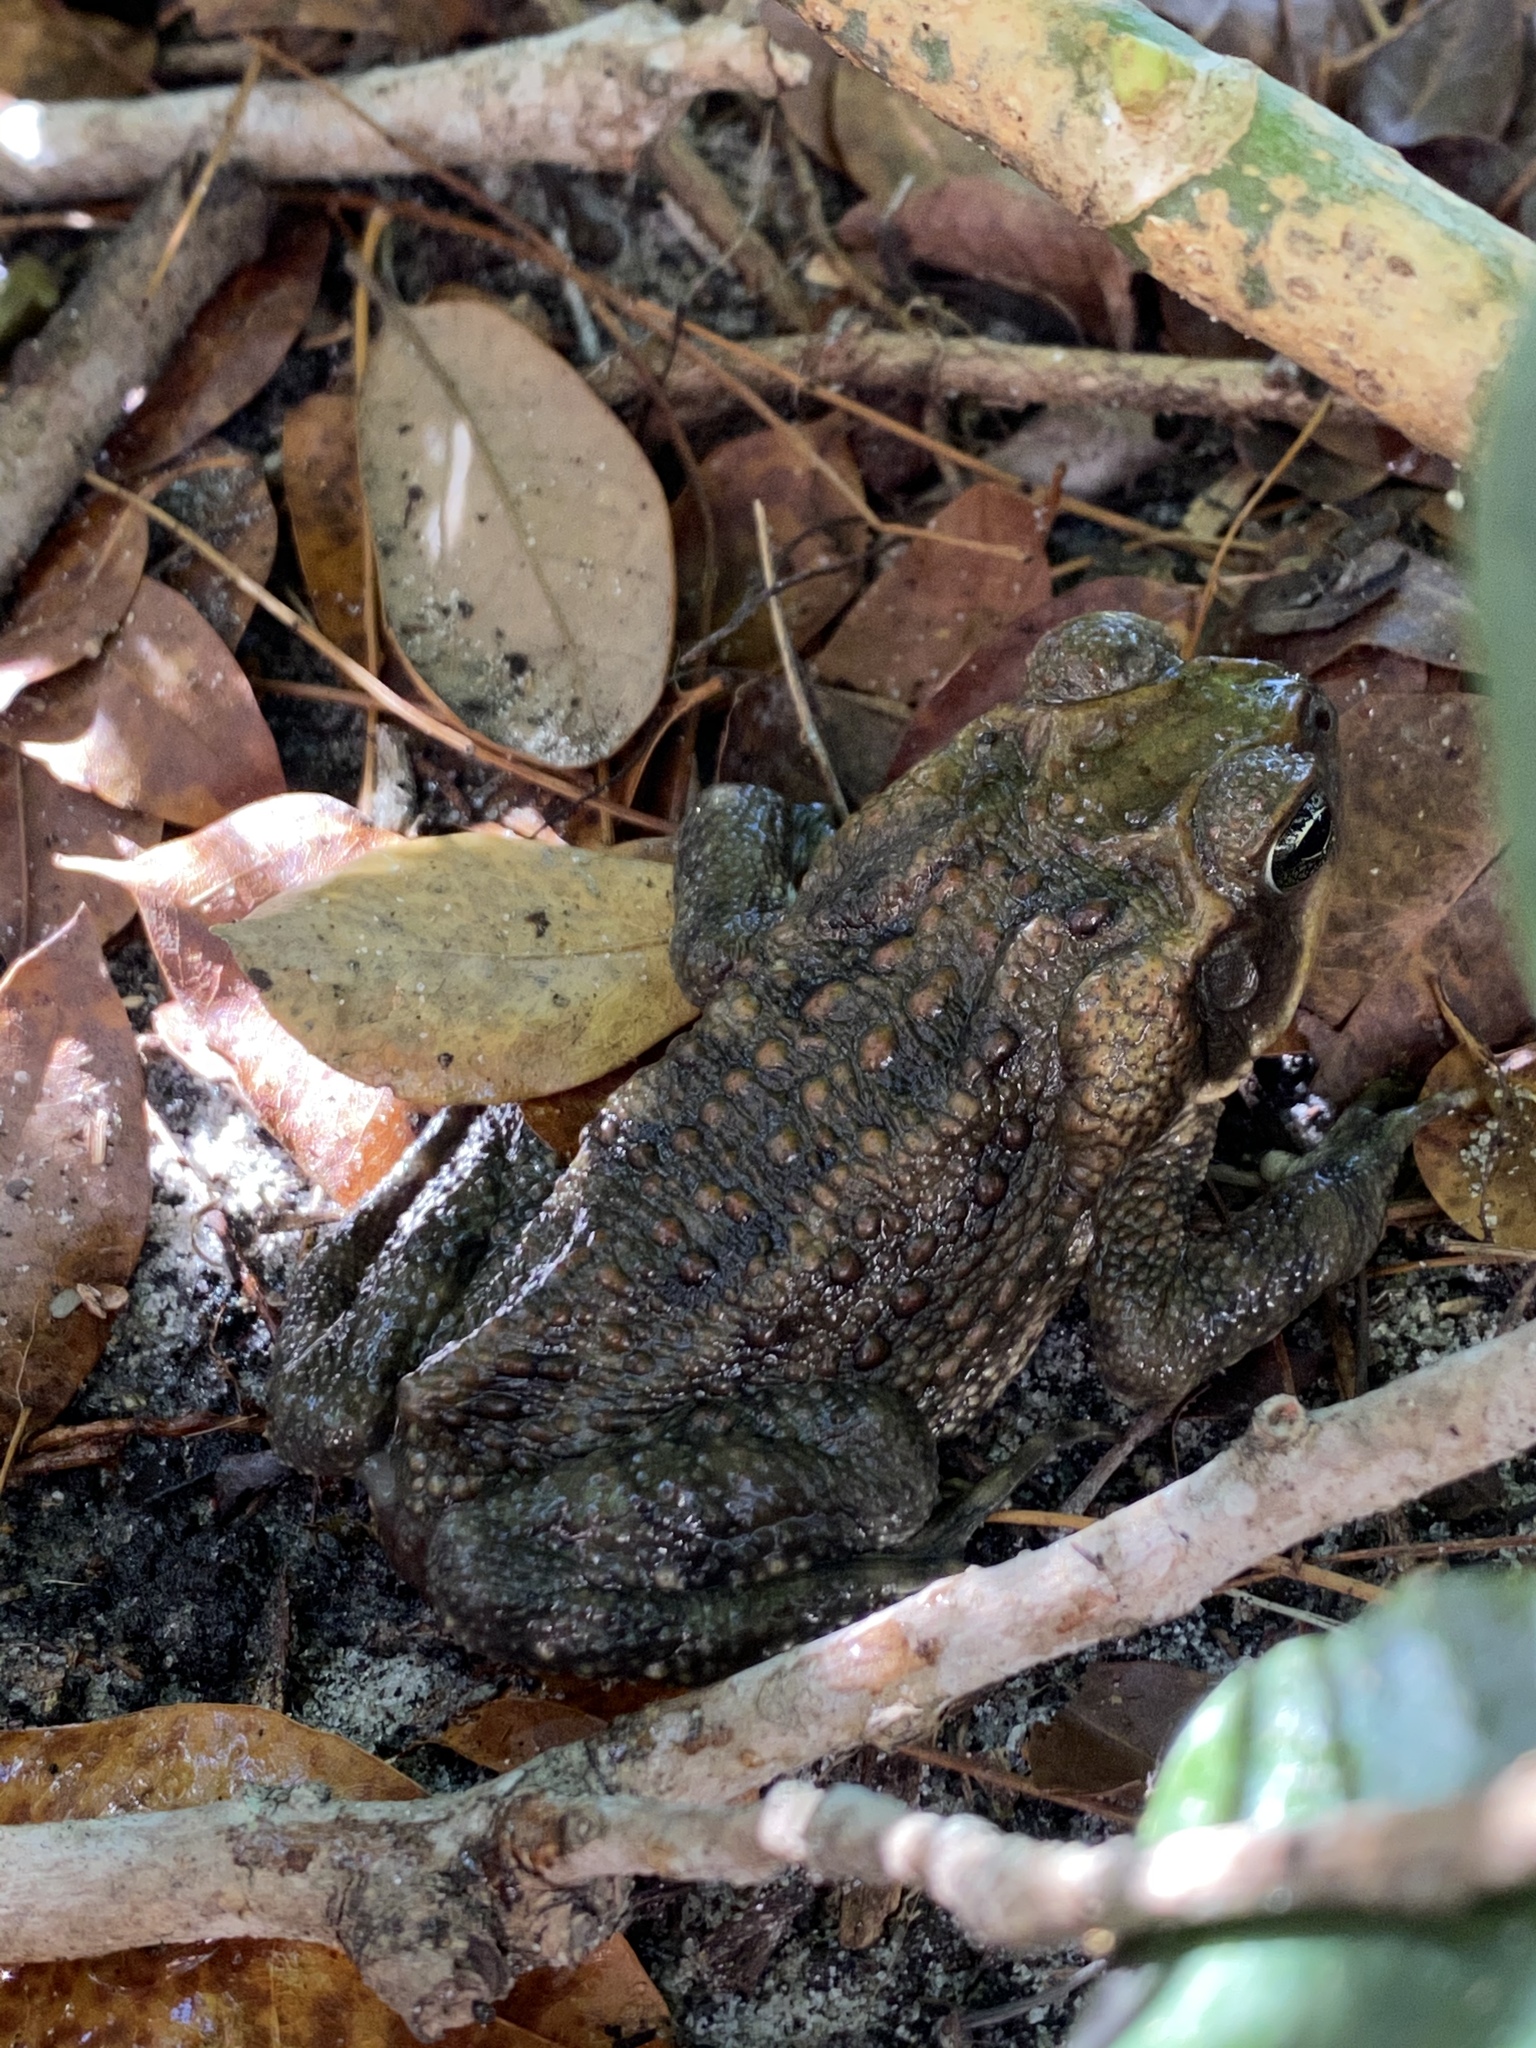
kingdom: Animalia
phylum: Chordata
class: Amphibia
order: Anura
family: Bufonidae
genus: Rhinella
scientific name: Rhinella marina
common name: Cane toad
